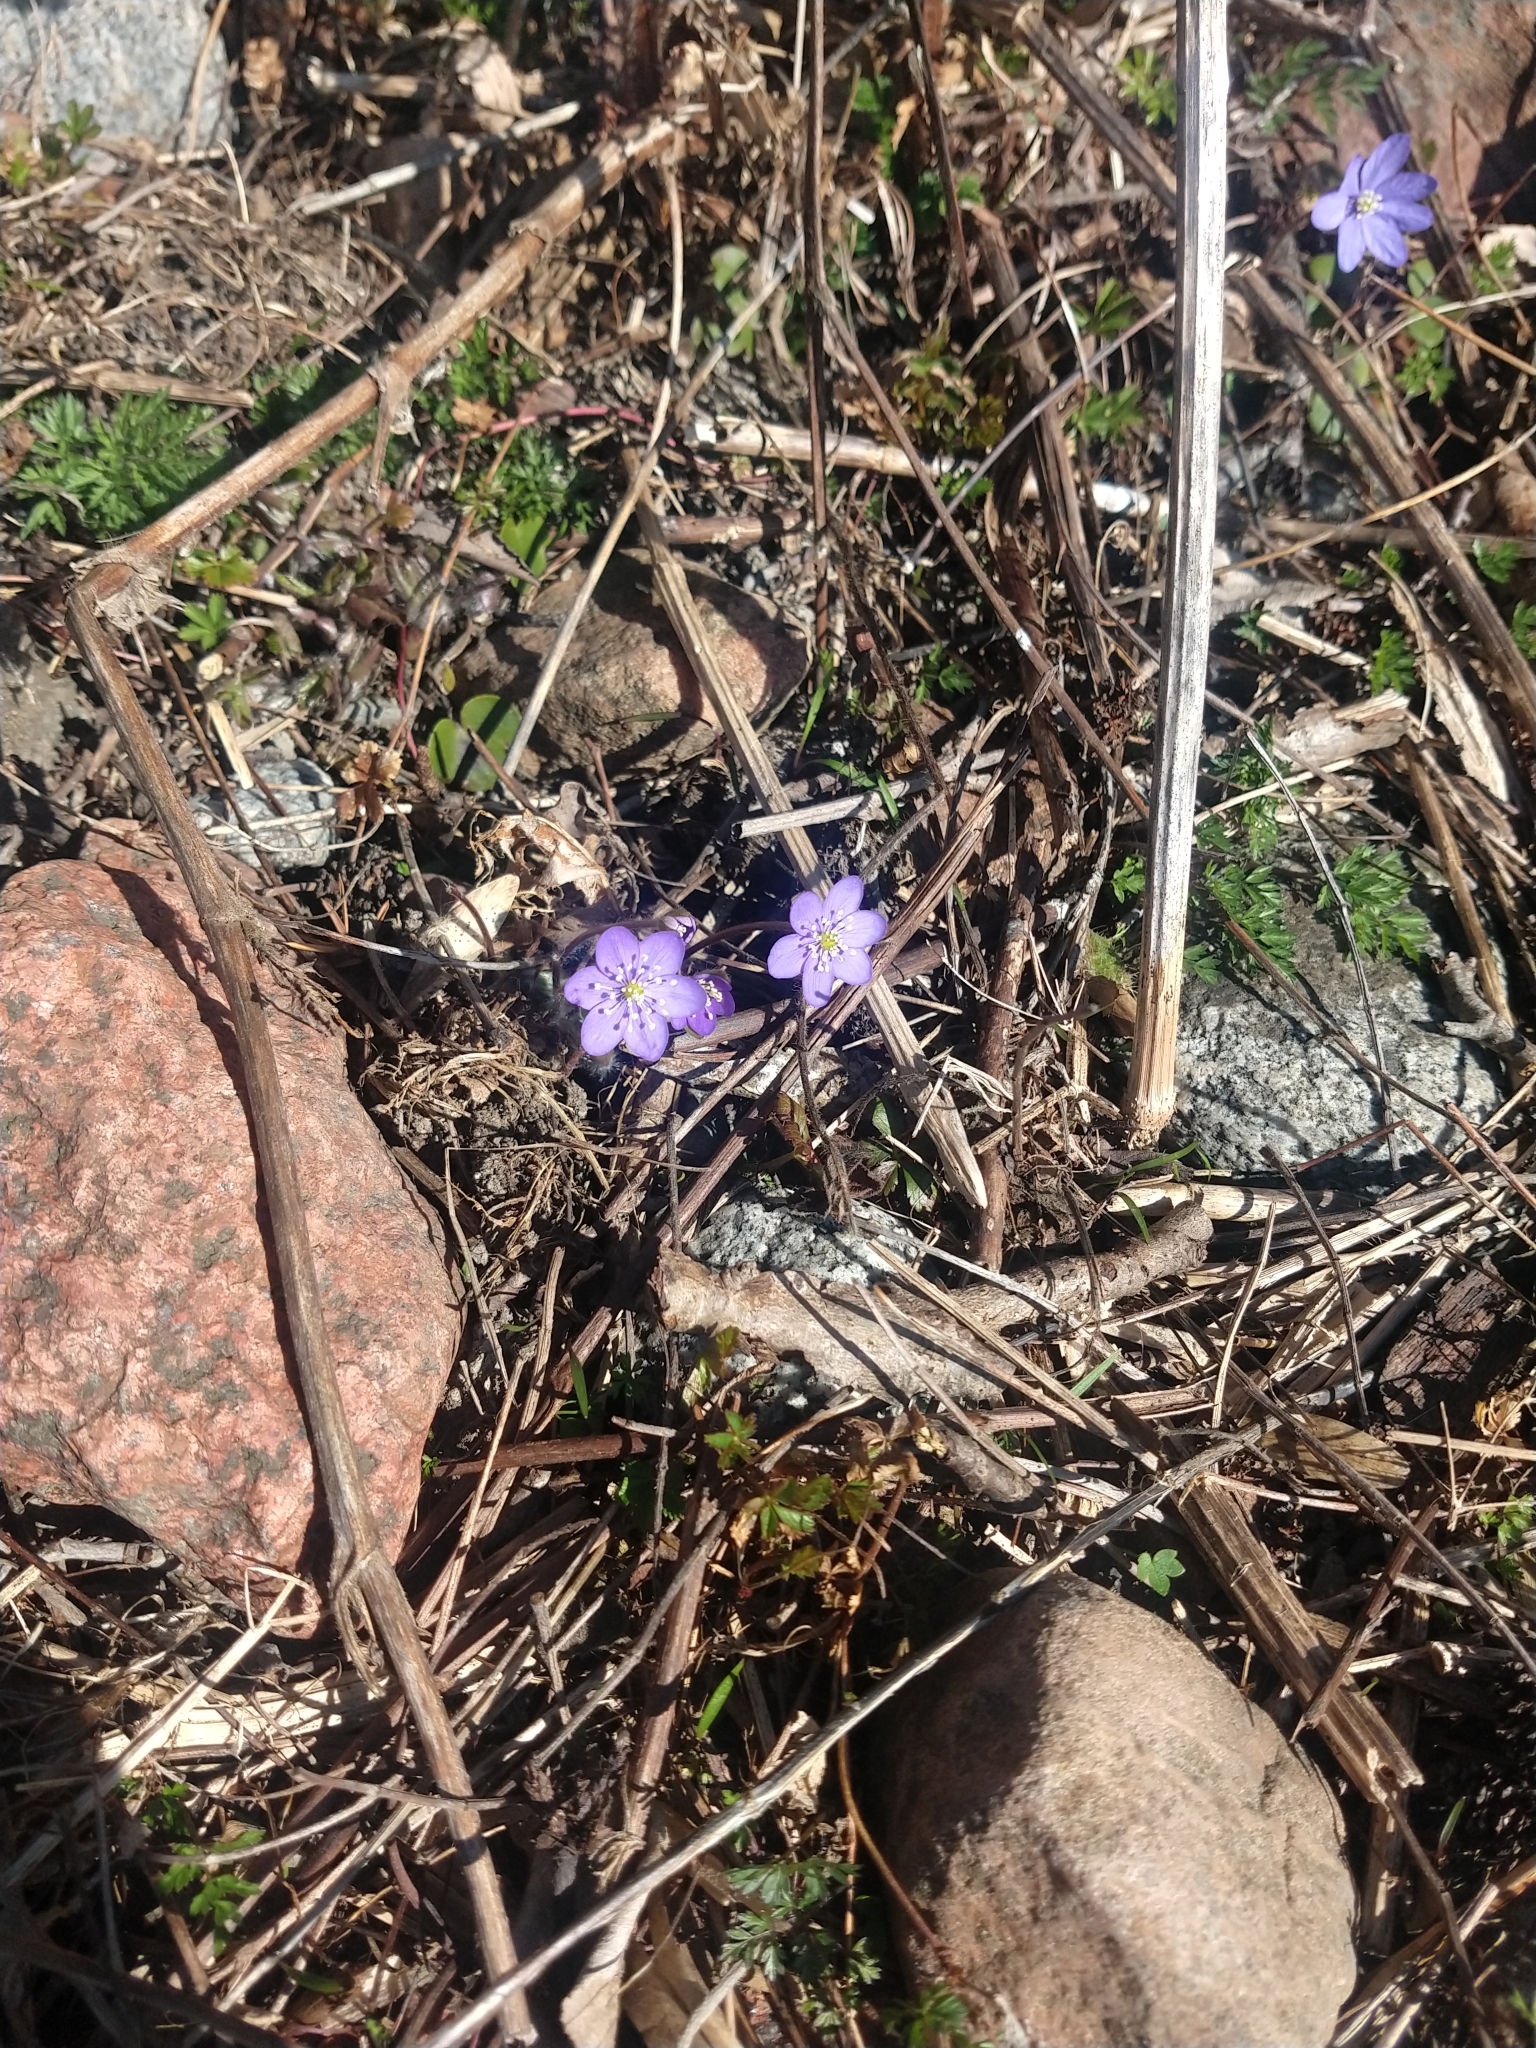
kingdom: Plantae
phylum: Tracheophyta
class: Magnoliopsida
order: Ranunculales
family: Ranunculaceae
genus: Hepatica
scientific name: Hepatica nobilis
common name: Liverleaf
